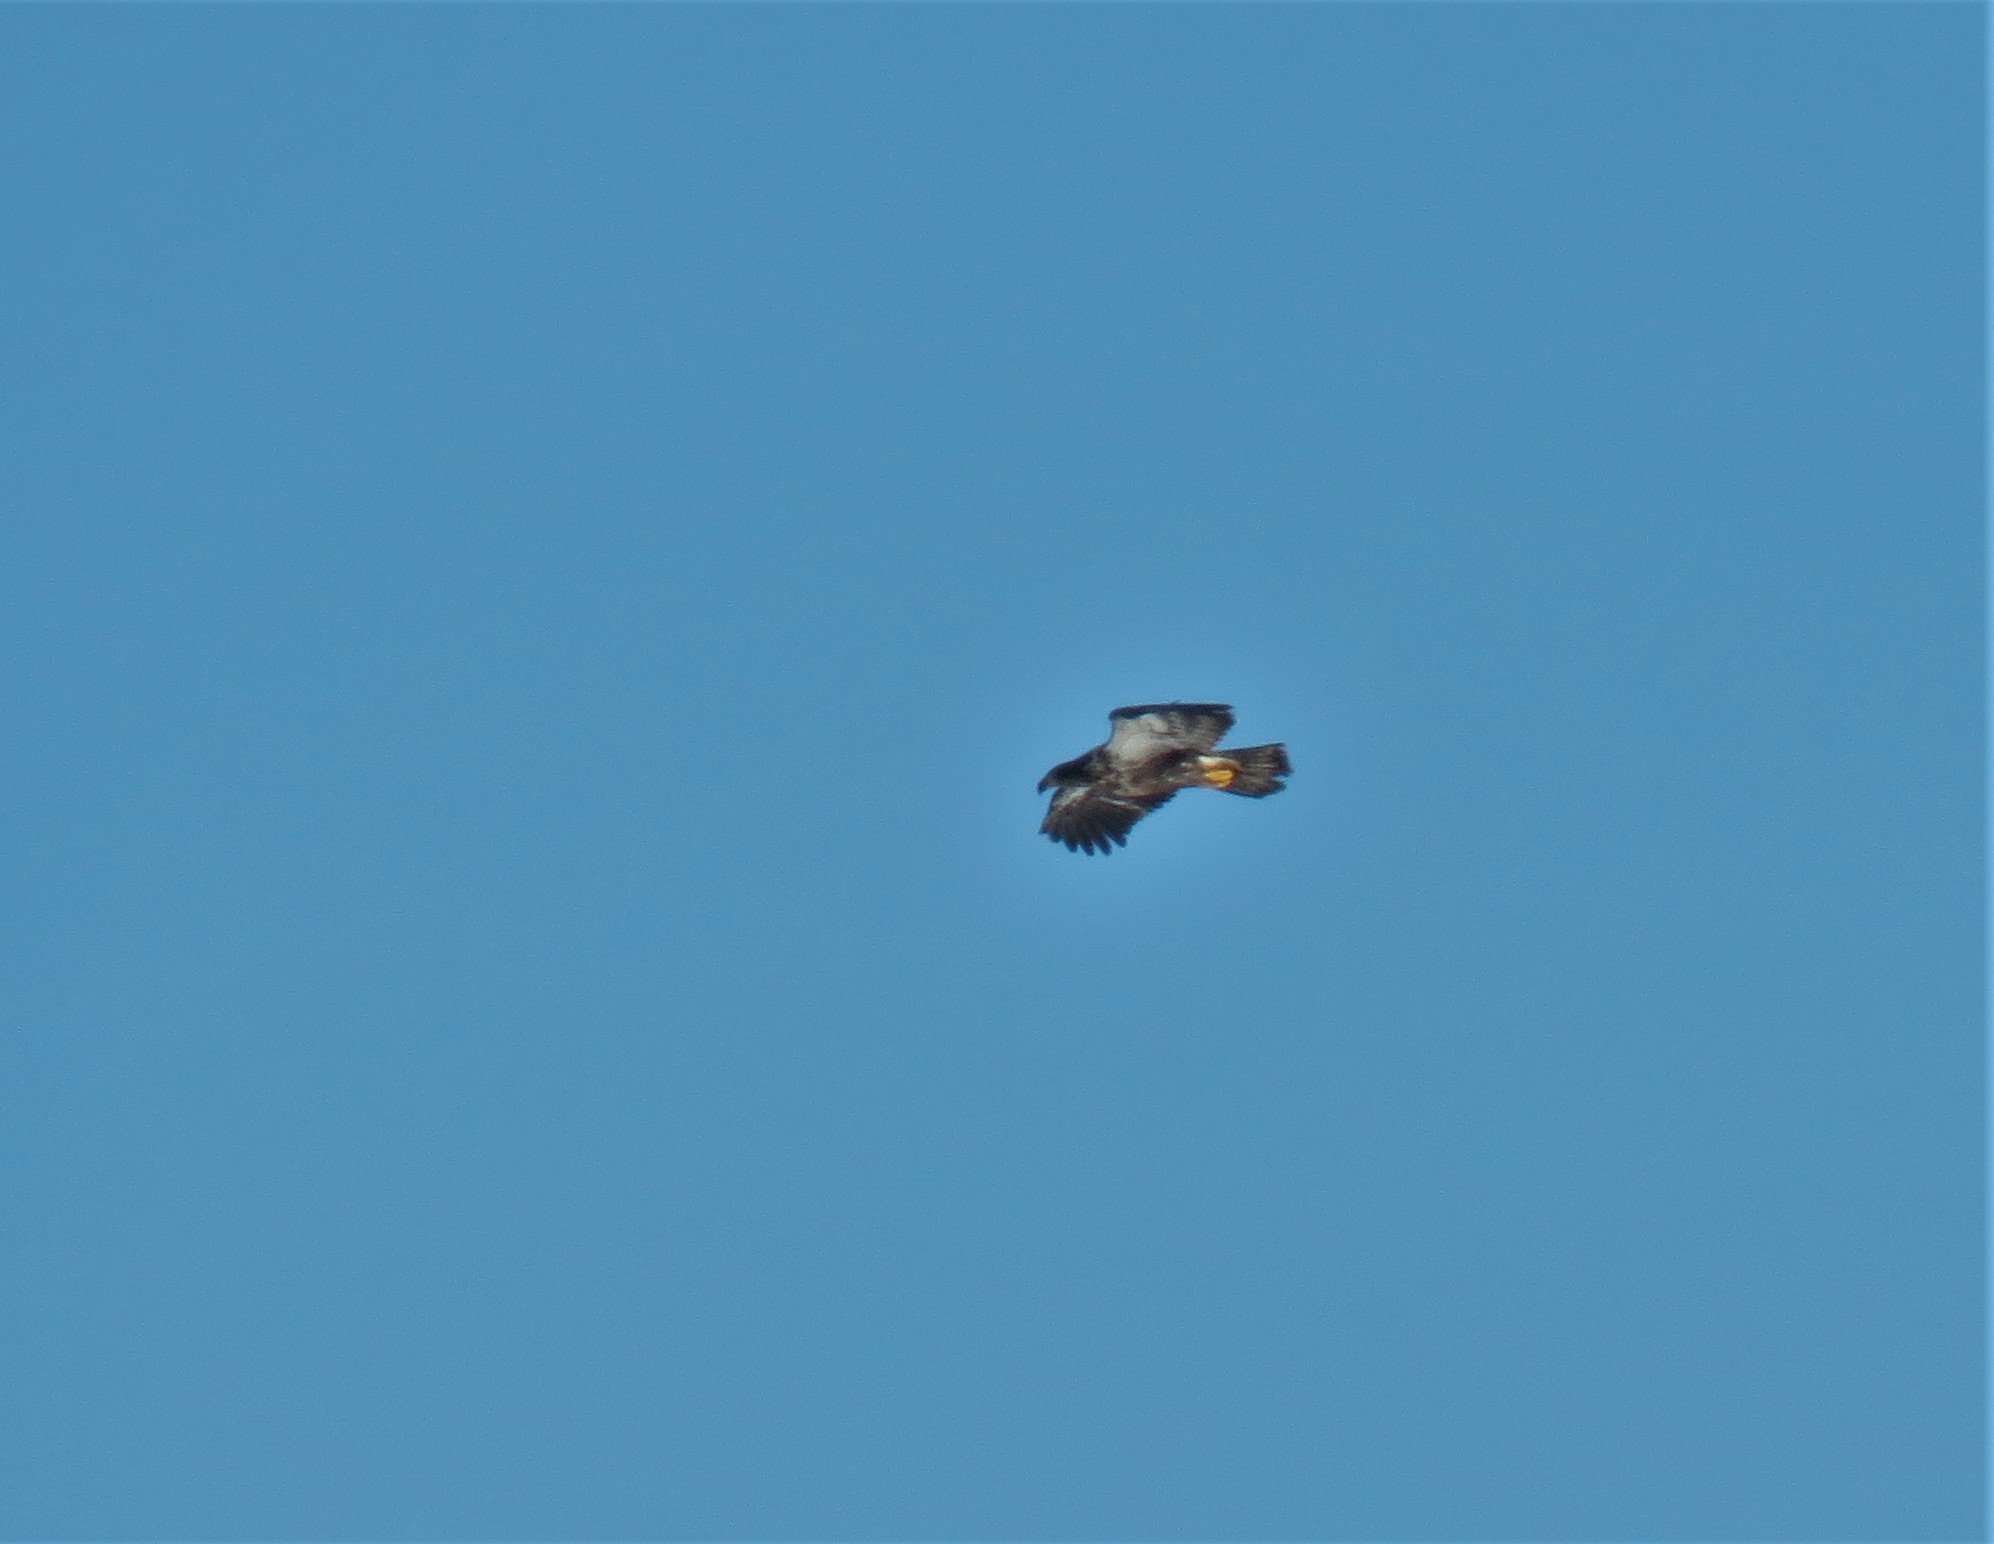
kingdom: Animalia
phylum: Chordata
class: Aves
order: Accipitriformes
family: Accipitridae
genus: Haliaeetus
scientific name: Haliaeetus leucocephalus
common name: Bald eagle
